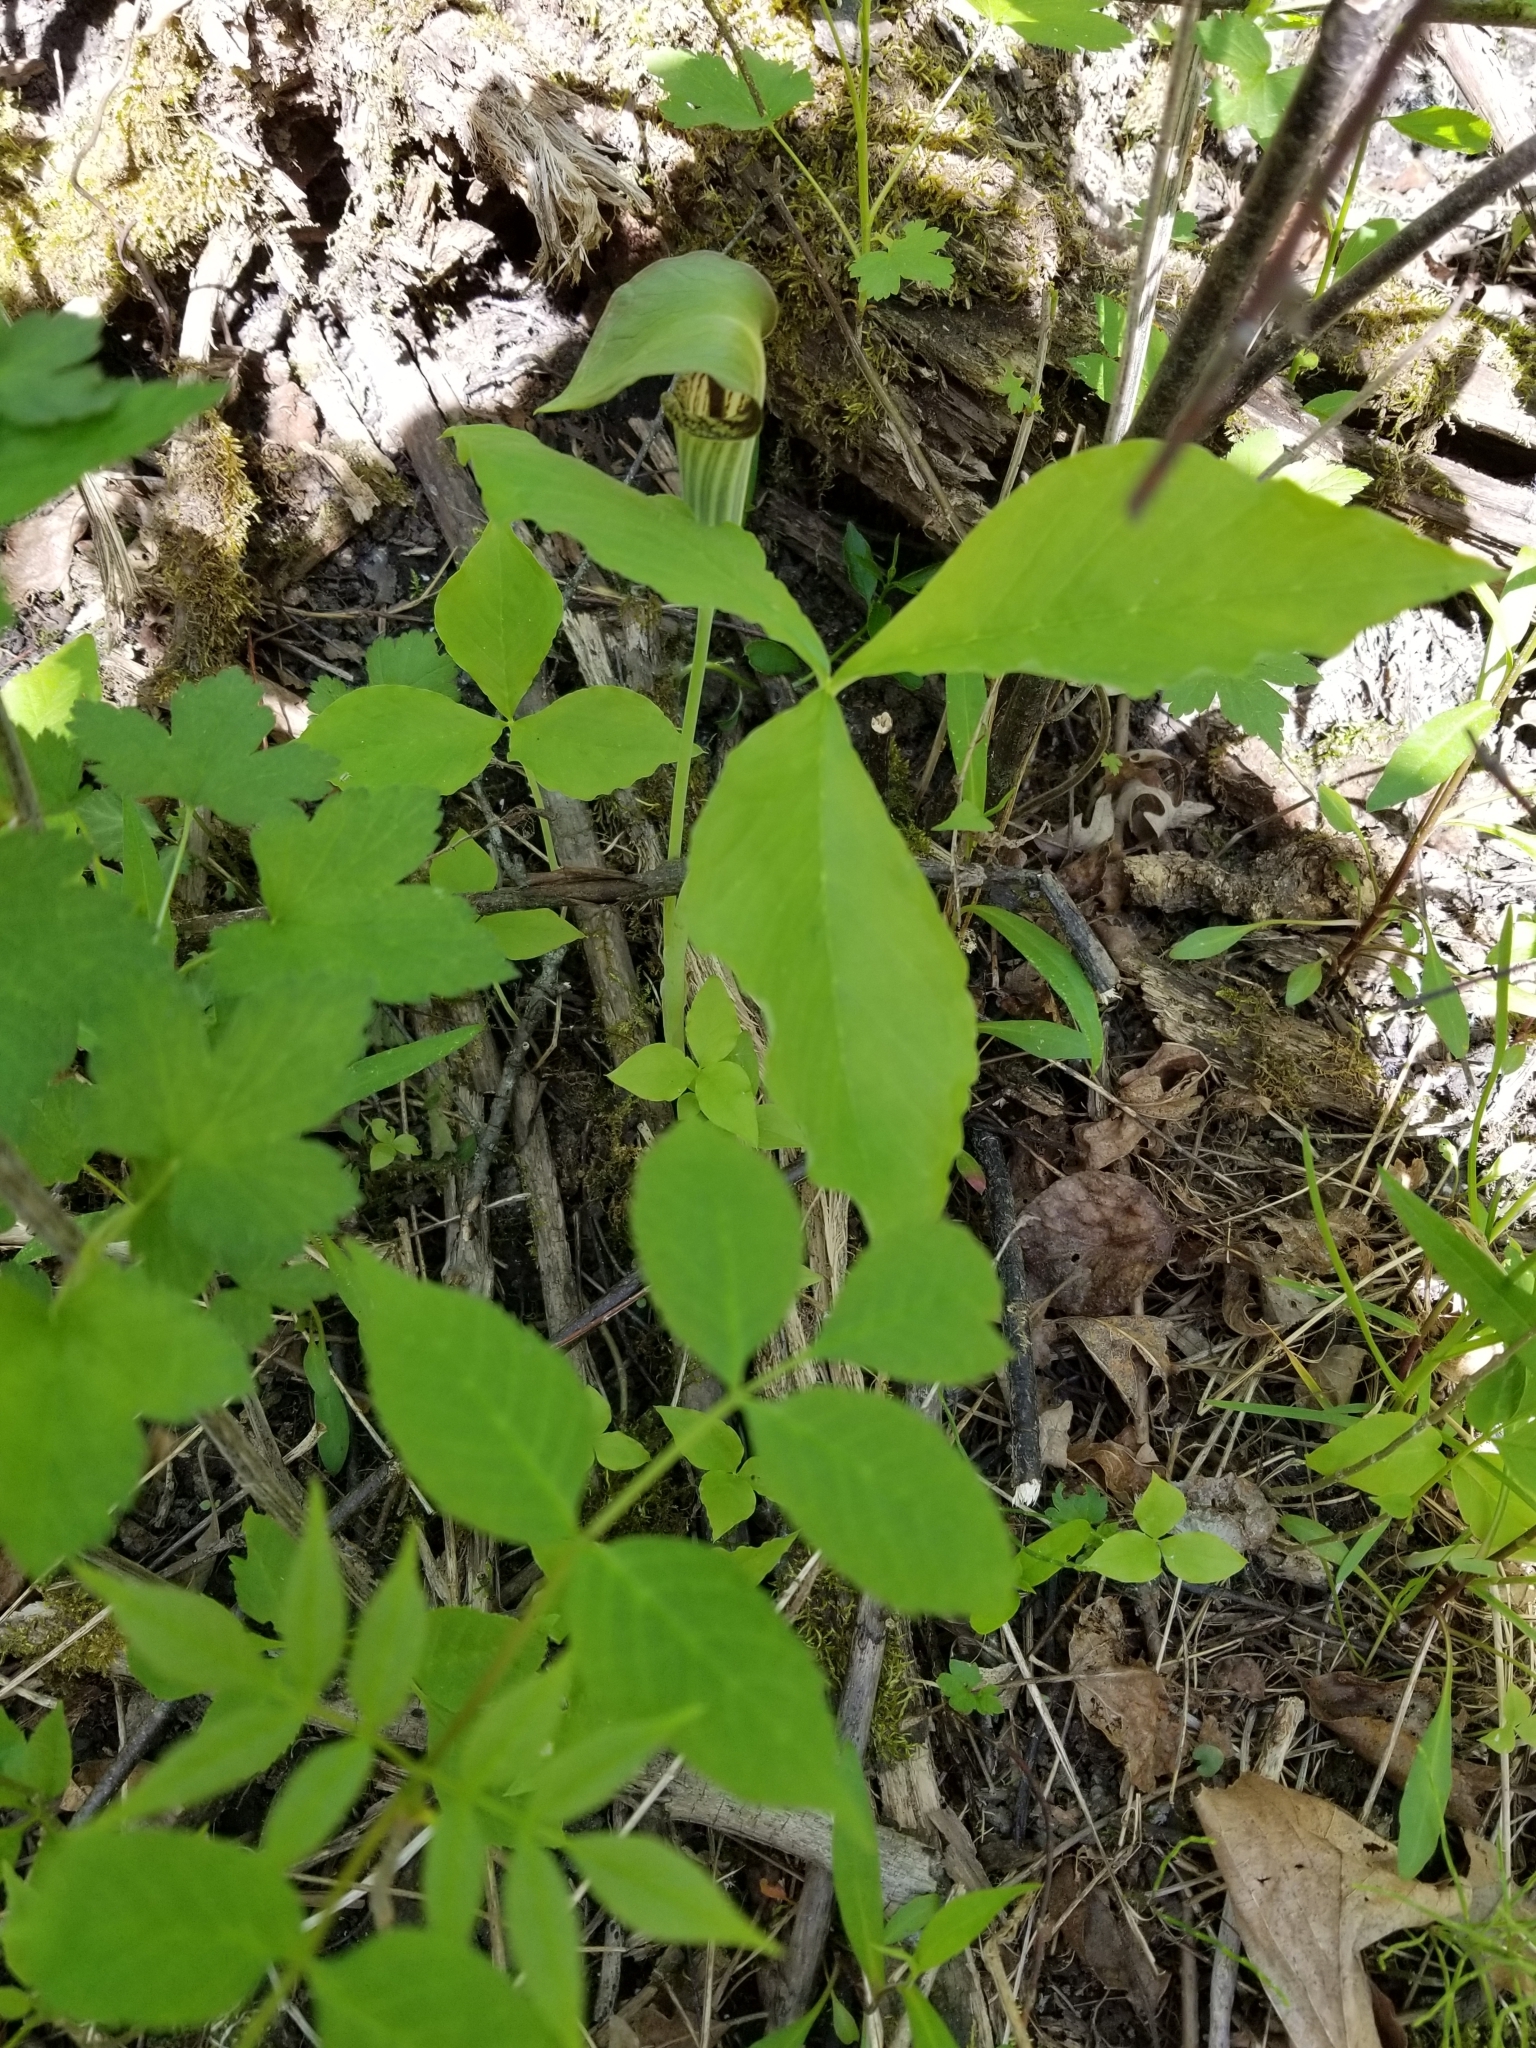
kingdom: Plantae
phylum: Tracheophyta
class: Liliopsida
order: Alismatales
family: Araceae
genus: Arisaema
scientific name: Arisaema triphyllum
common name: Jack-in-the-pulpit
